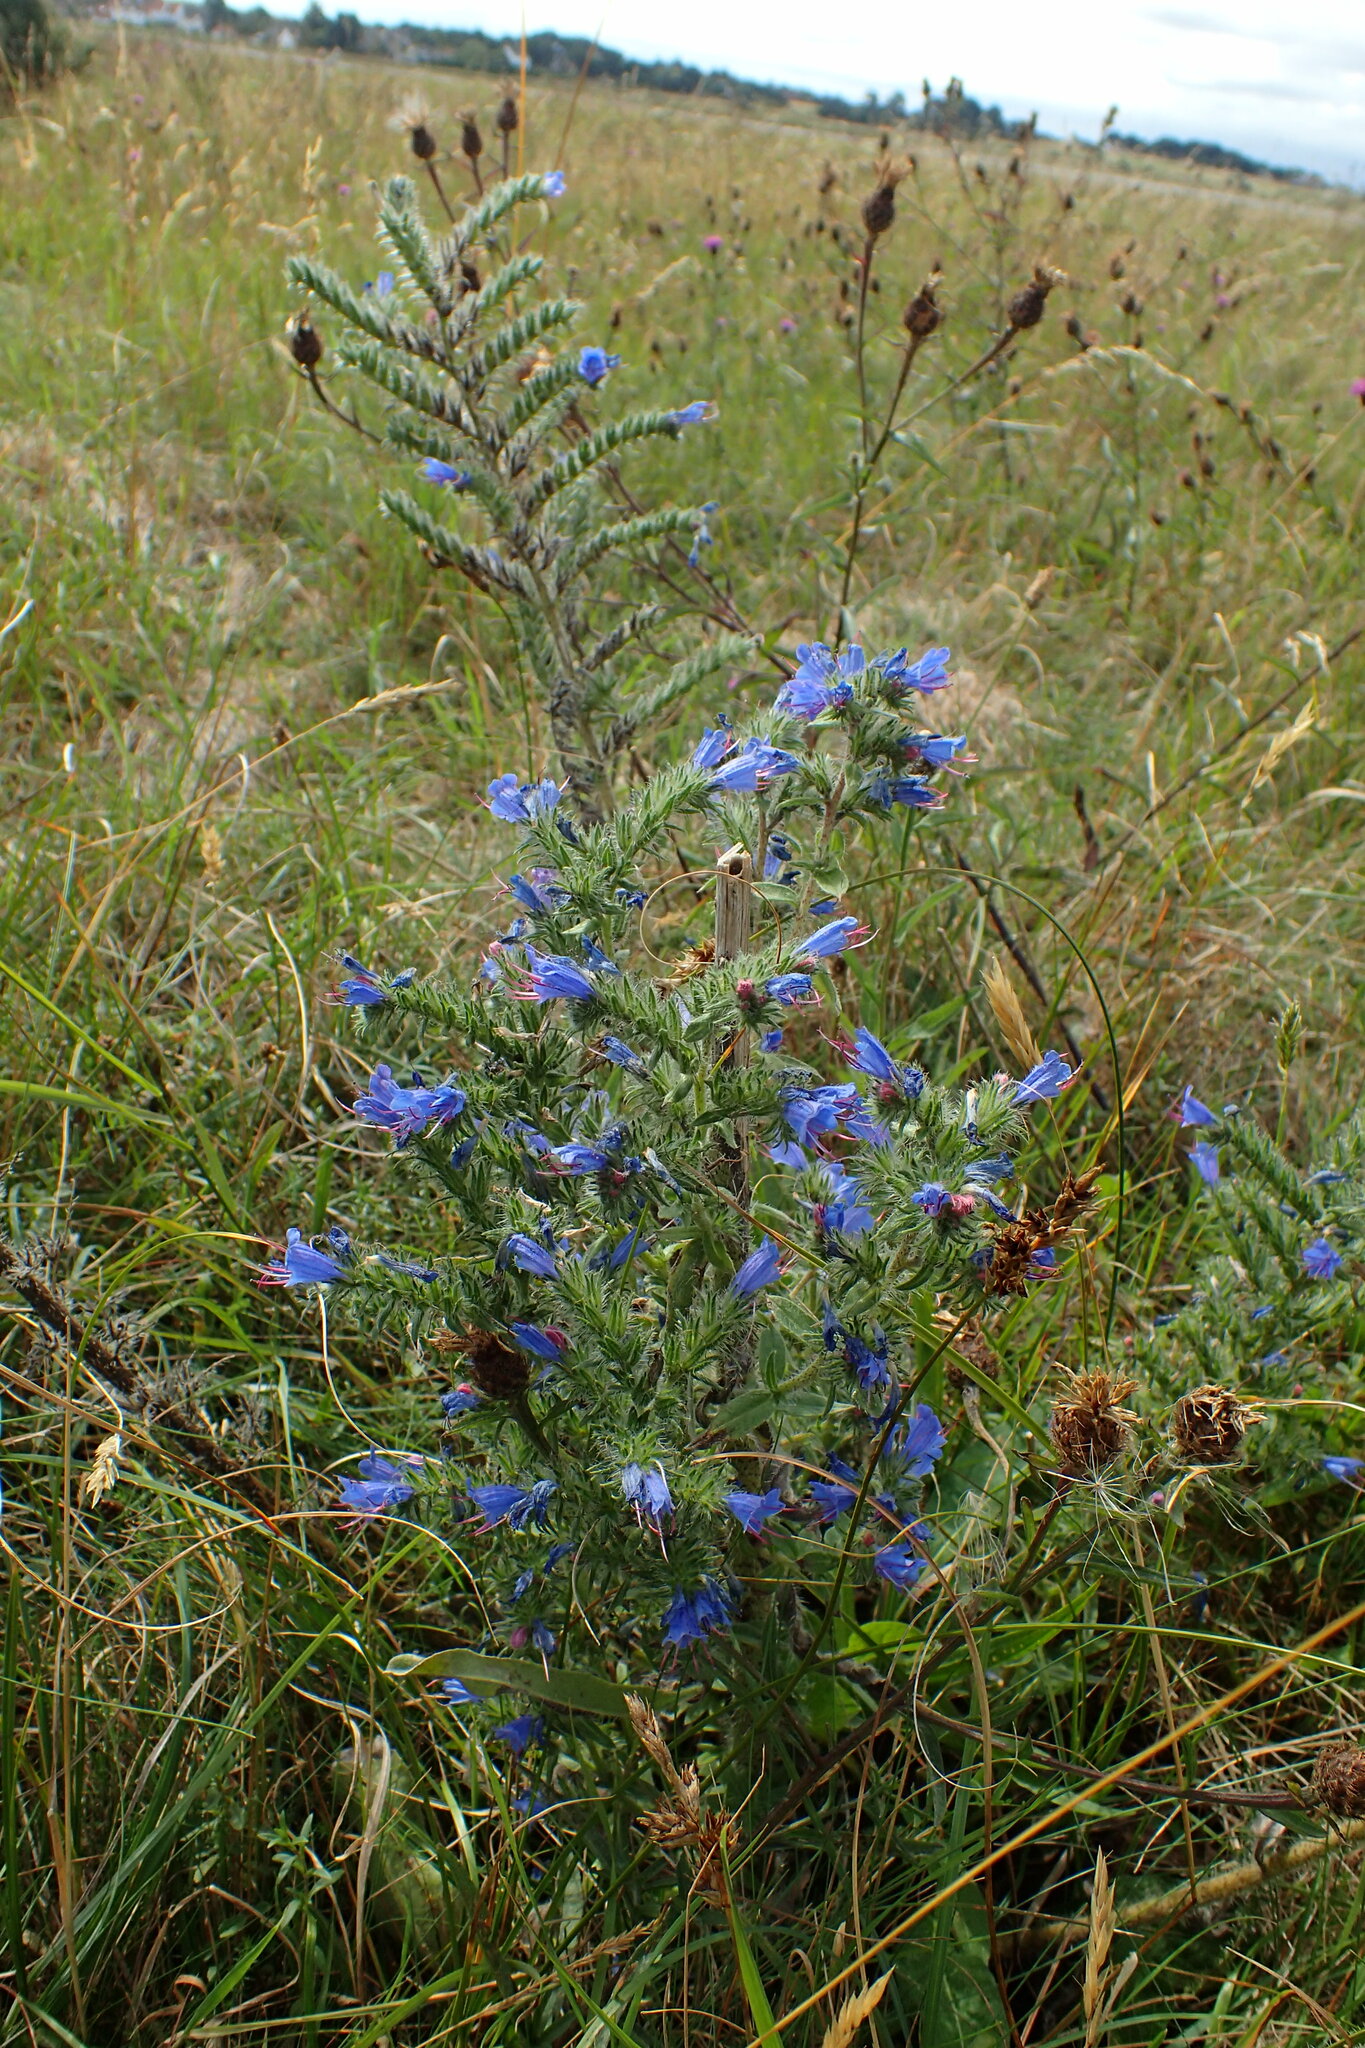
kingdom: Plantae
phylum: Tracheophyta
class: Magnoliopsida
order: Boraginales
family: Boraginaceae
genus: Echium
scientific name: Echium vulgare
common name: Common viper's bugloss
